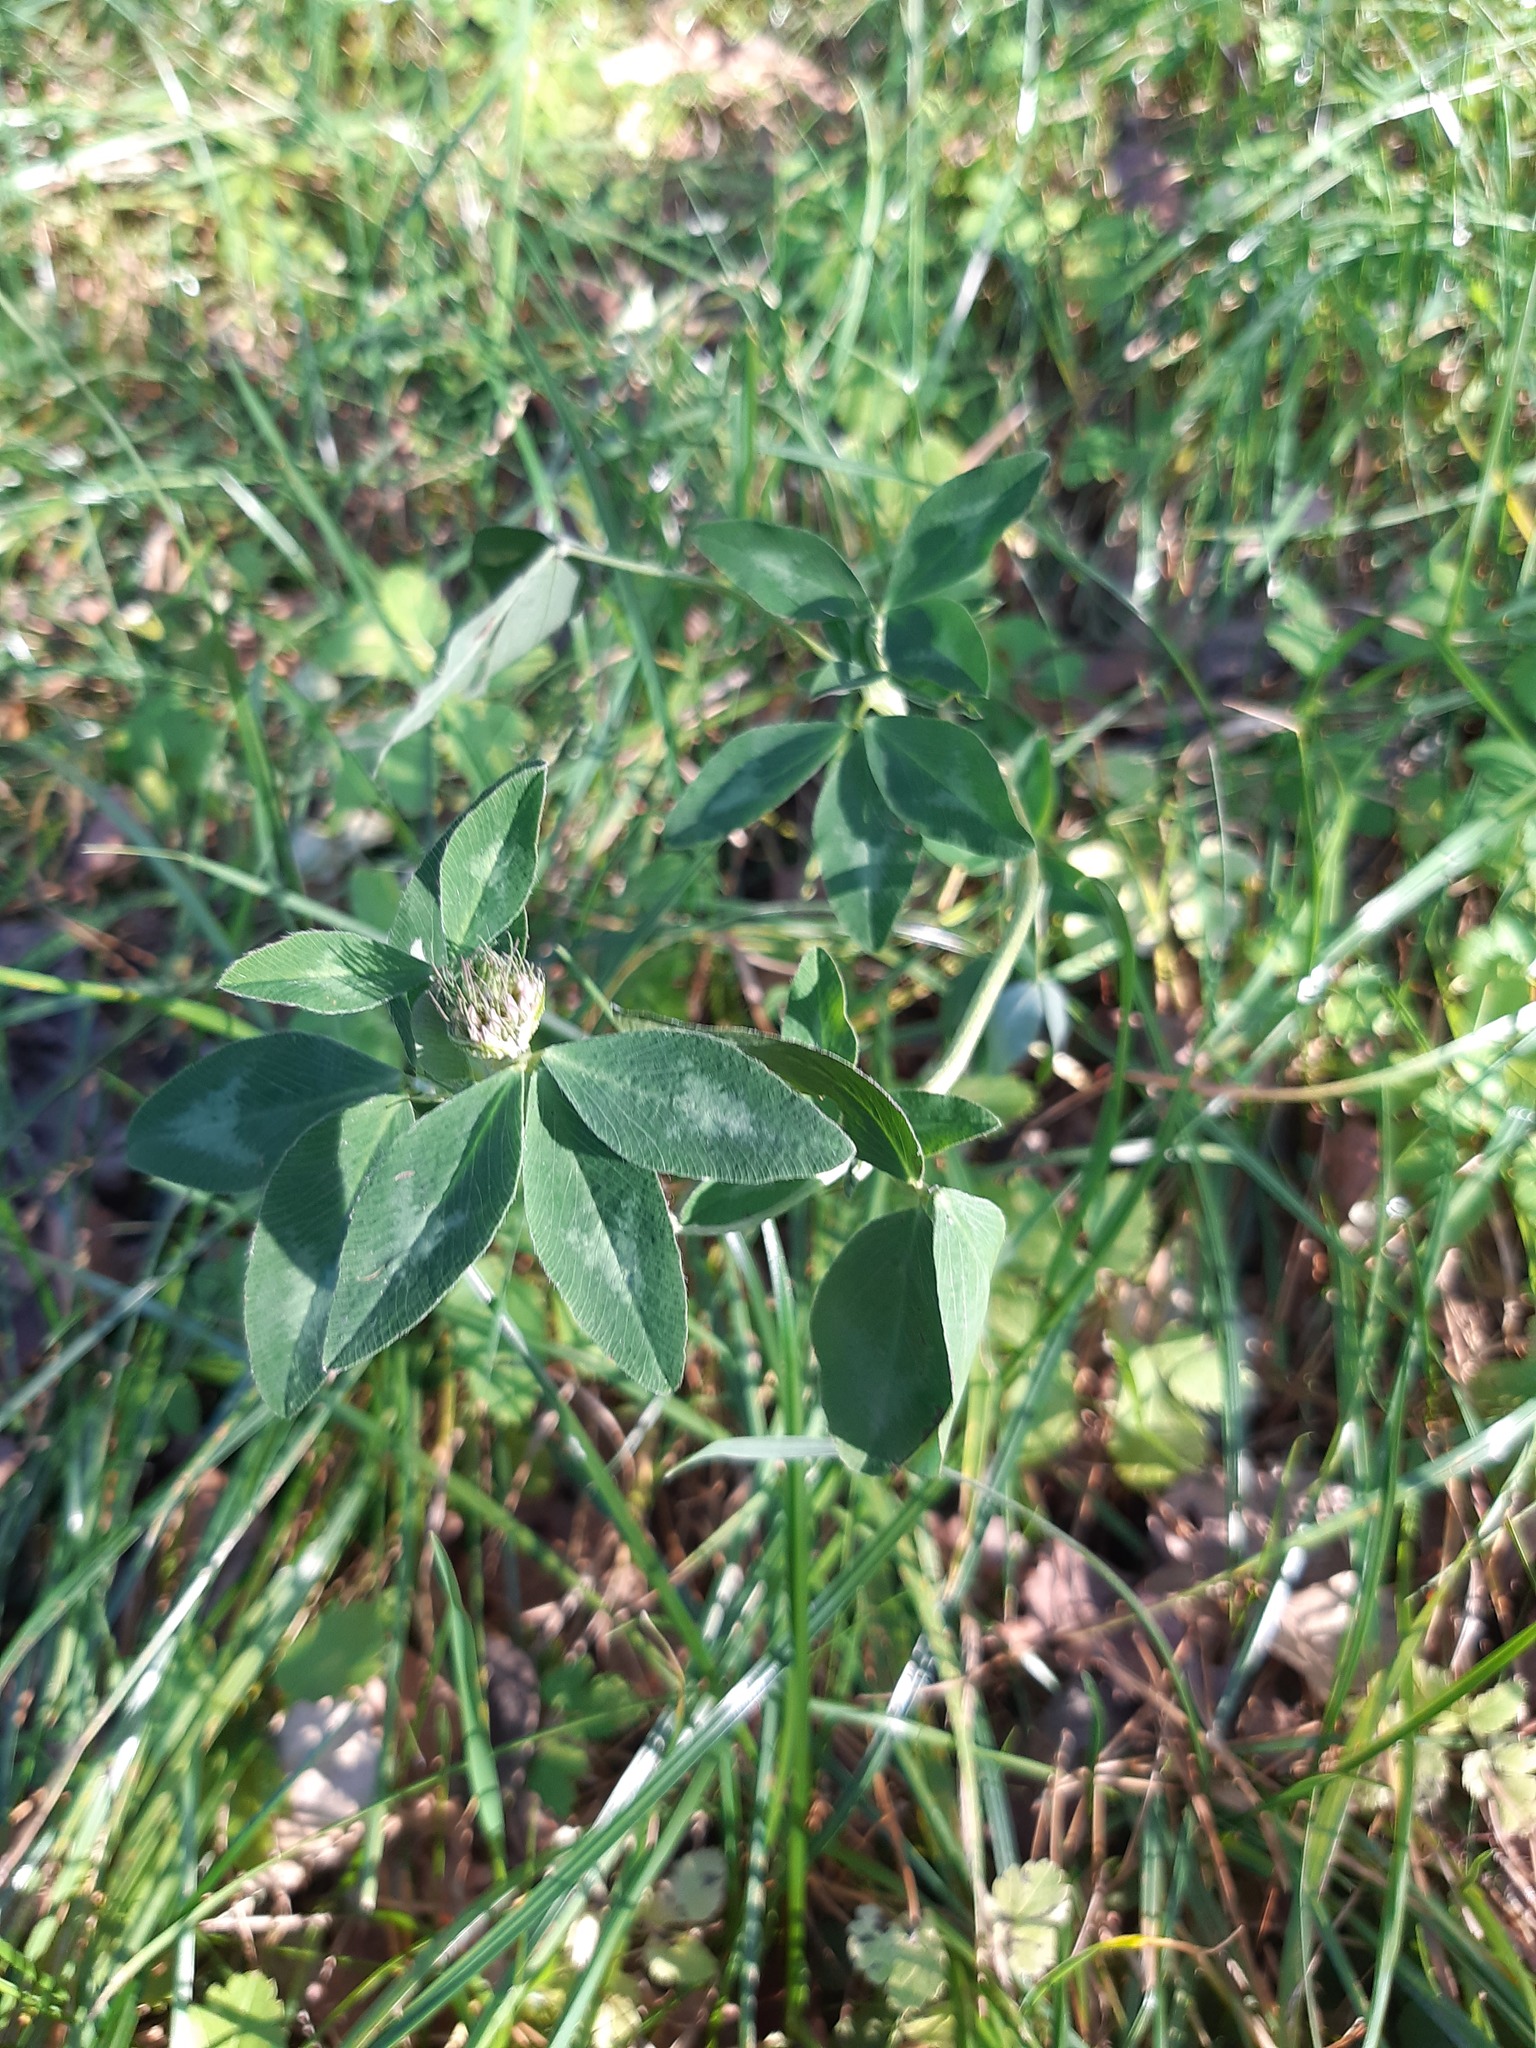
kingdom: Plantae
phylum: Tracheophyta
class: Magnoliopsida
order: Fabales
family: Fabaceae
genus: Trifolium
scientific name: Trifolium pratense
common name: Red clover
